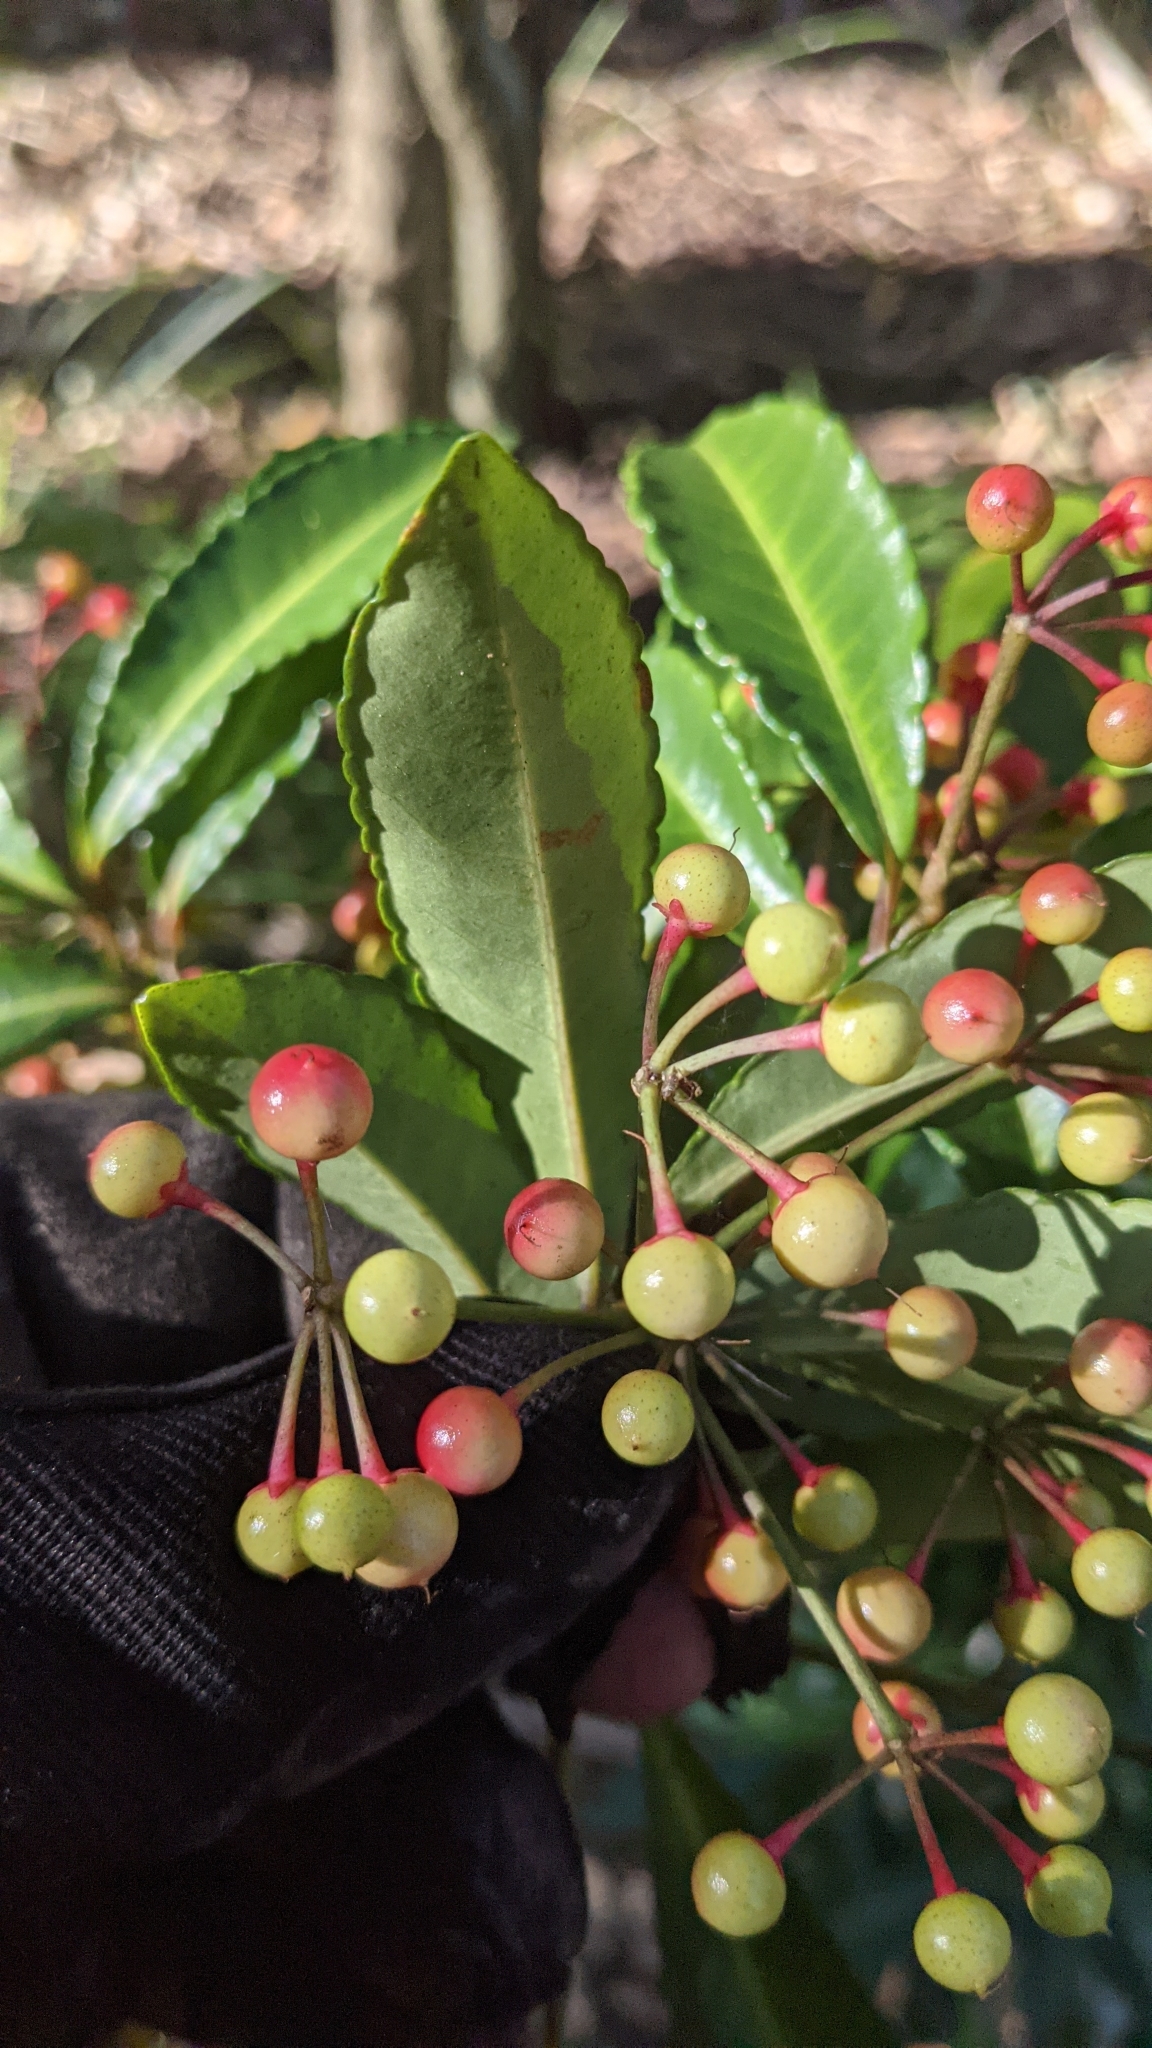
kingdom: Plantae
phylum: Tracheophyta
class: Magnoliopsida
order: Ericales
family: Primulaceae
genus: Ardisia
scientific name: Ardisia crenata
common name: Hen's eyes
